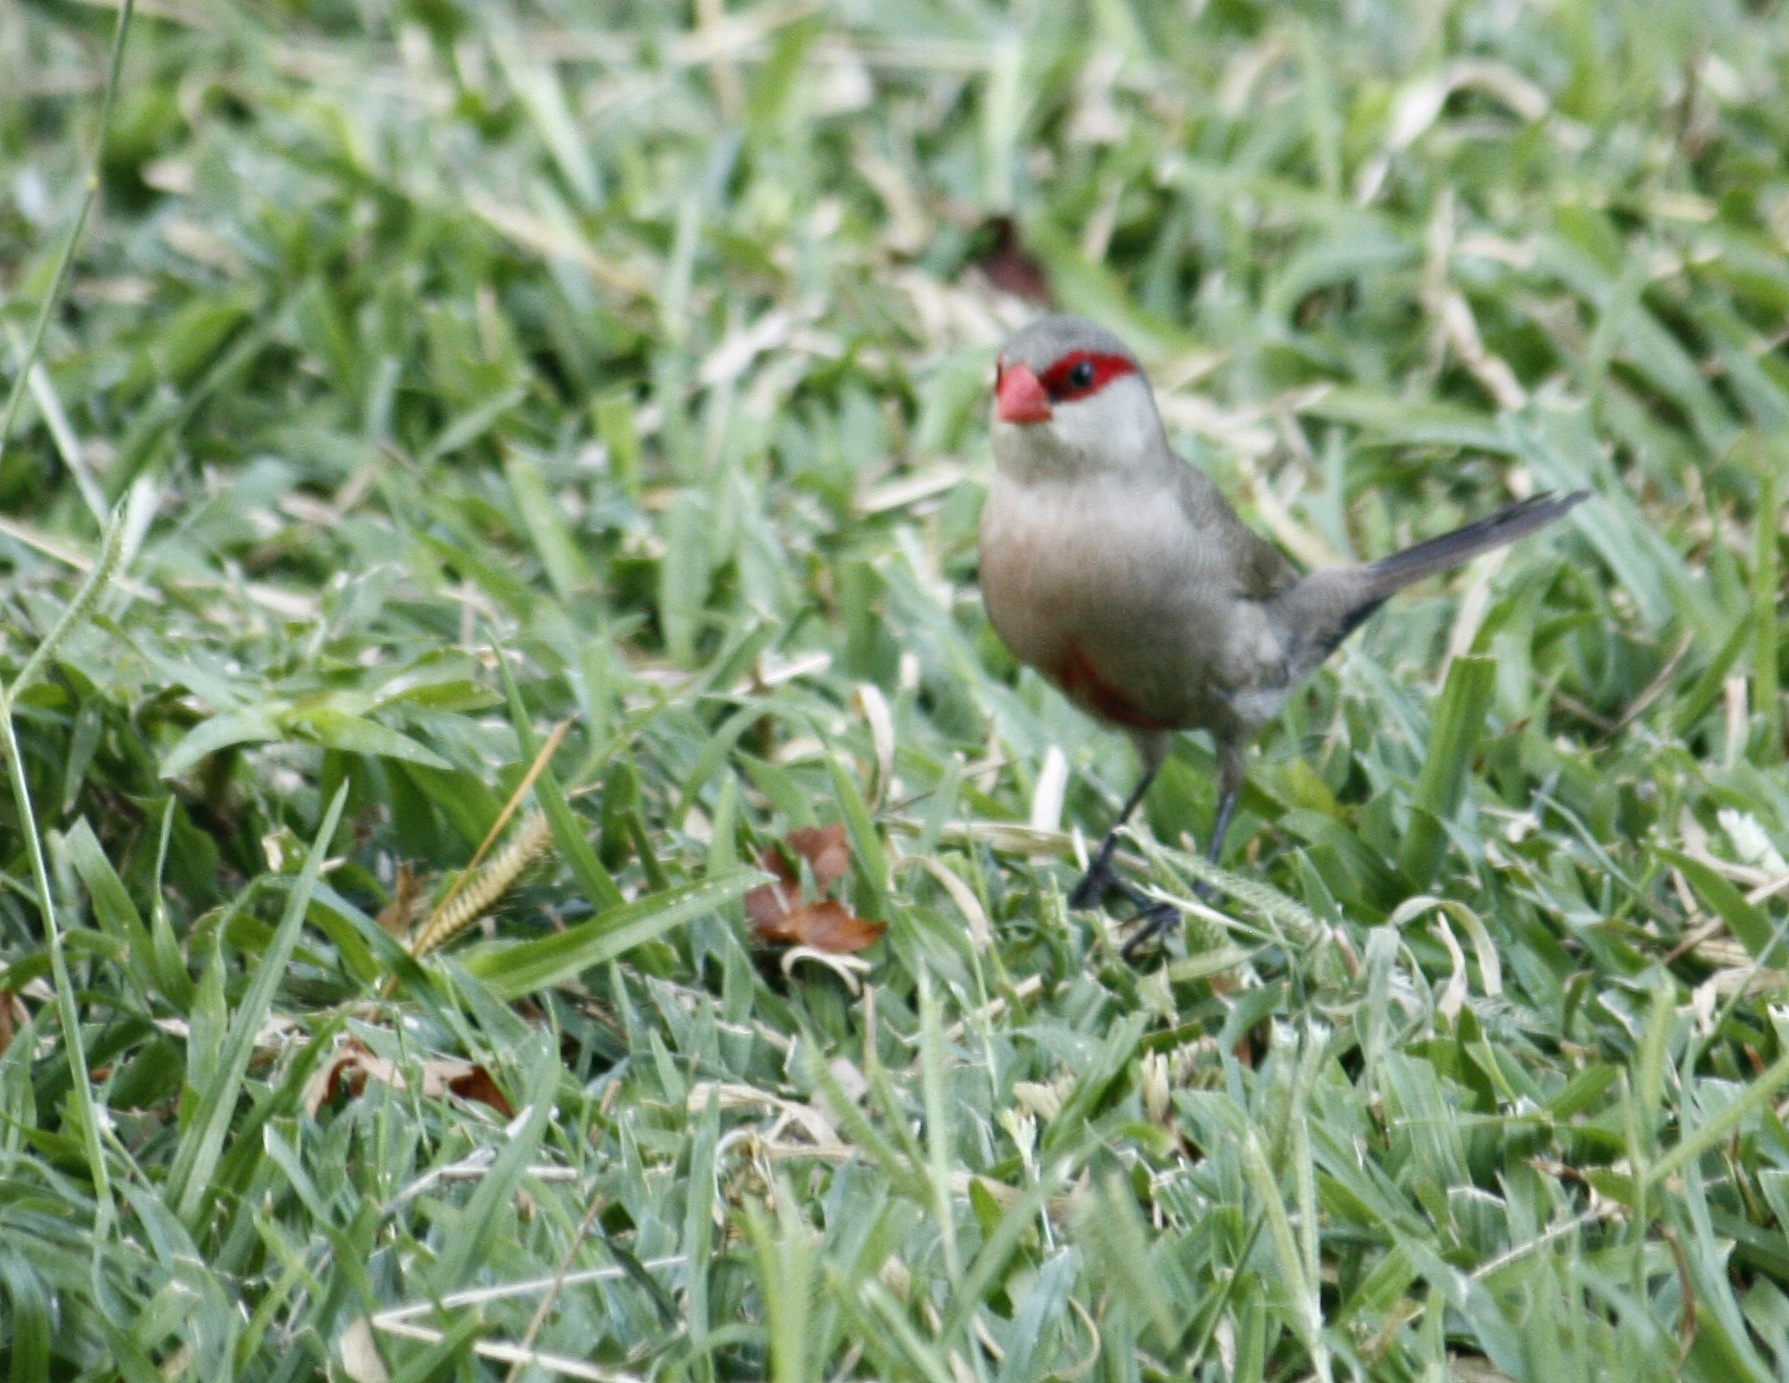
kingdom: Animalia
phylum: Chordata
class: Aves
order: Passeriformes
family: Estrildidae
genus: Estrilda
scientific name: Estrilda astrild
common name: Common waxbill
